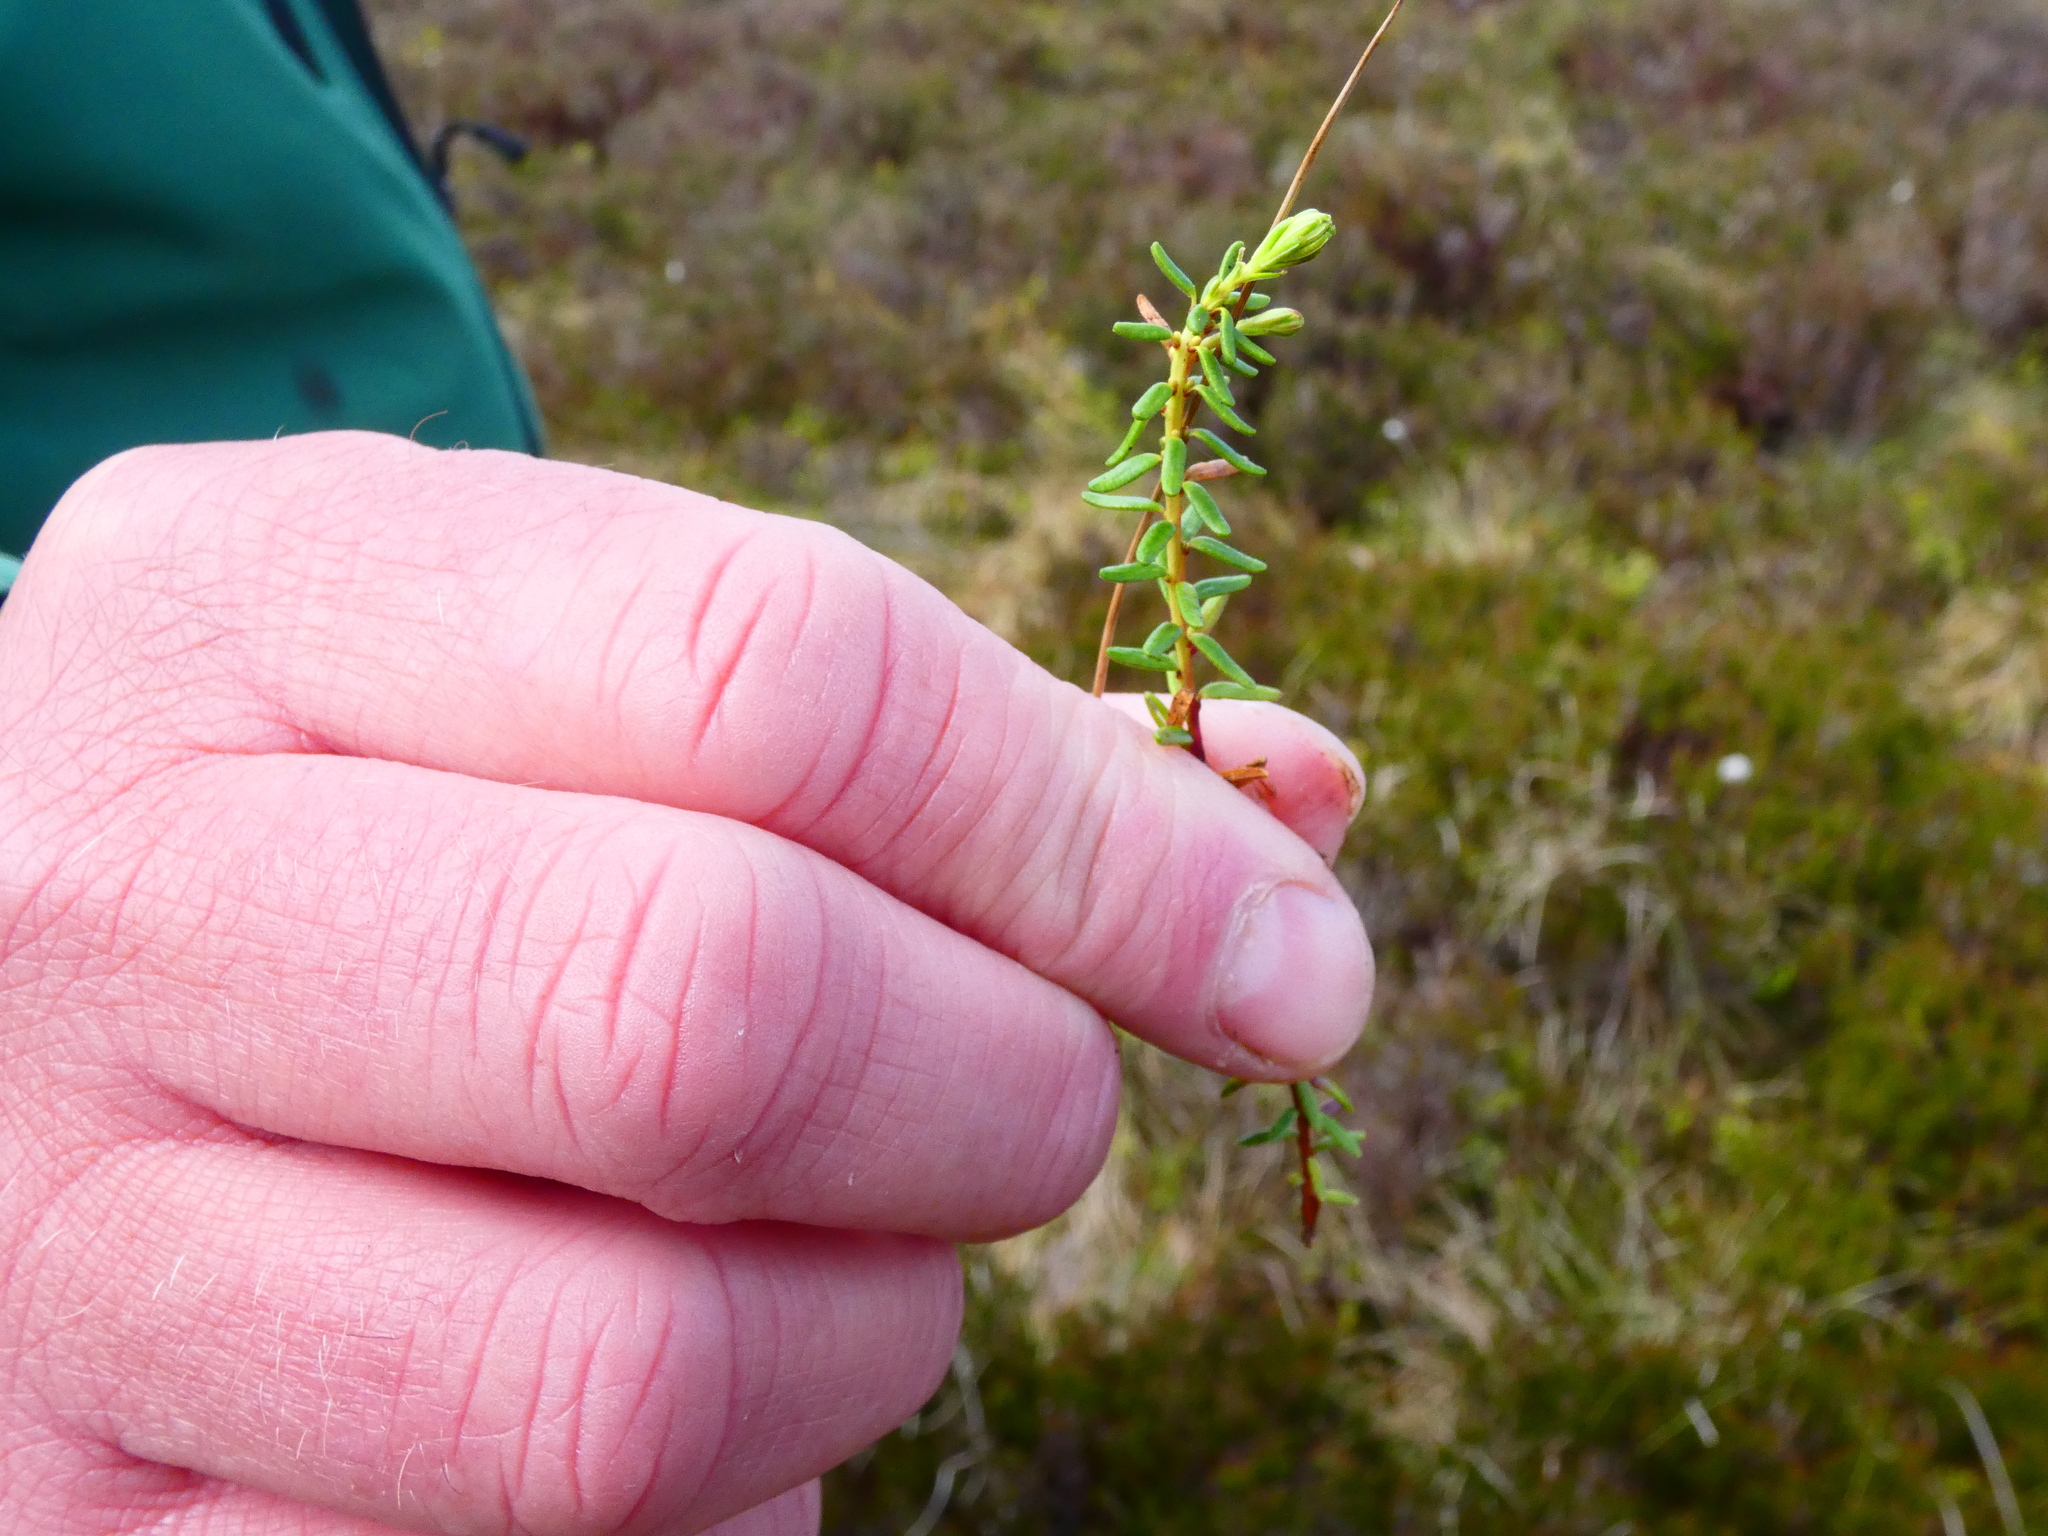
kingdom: Plantae
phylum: Tracheophyta
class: Magnoliopsida
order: Ericales
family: Ericaceae
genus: Empetrum
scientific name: Empetrum nigrum
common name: Black crowberry
